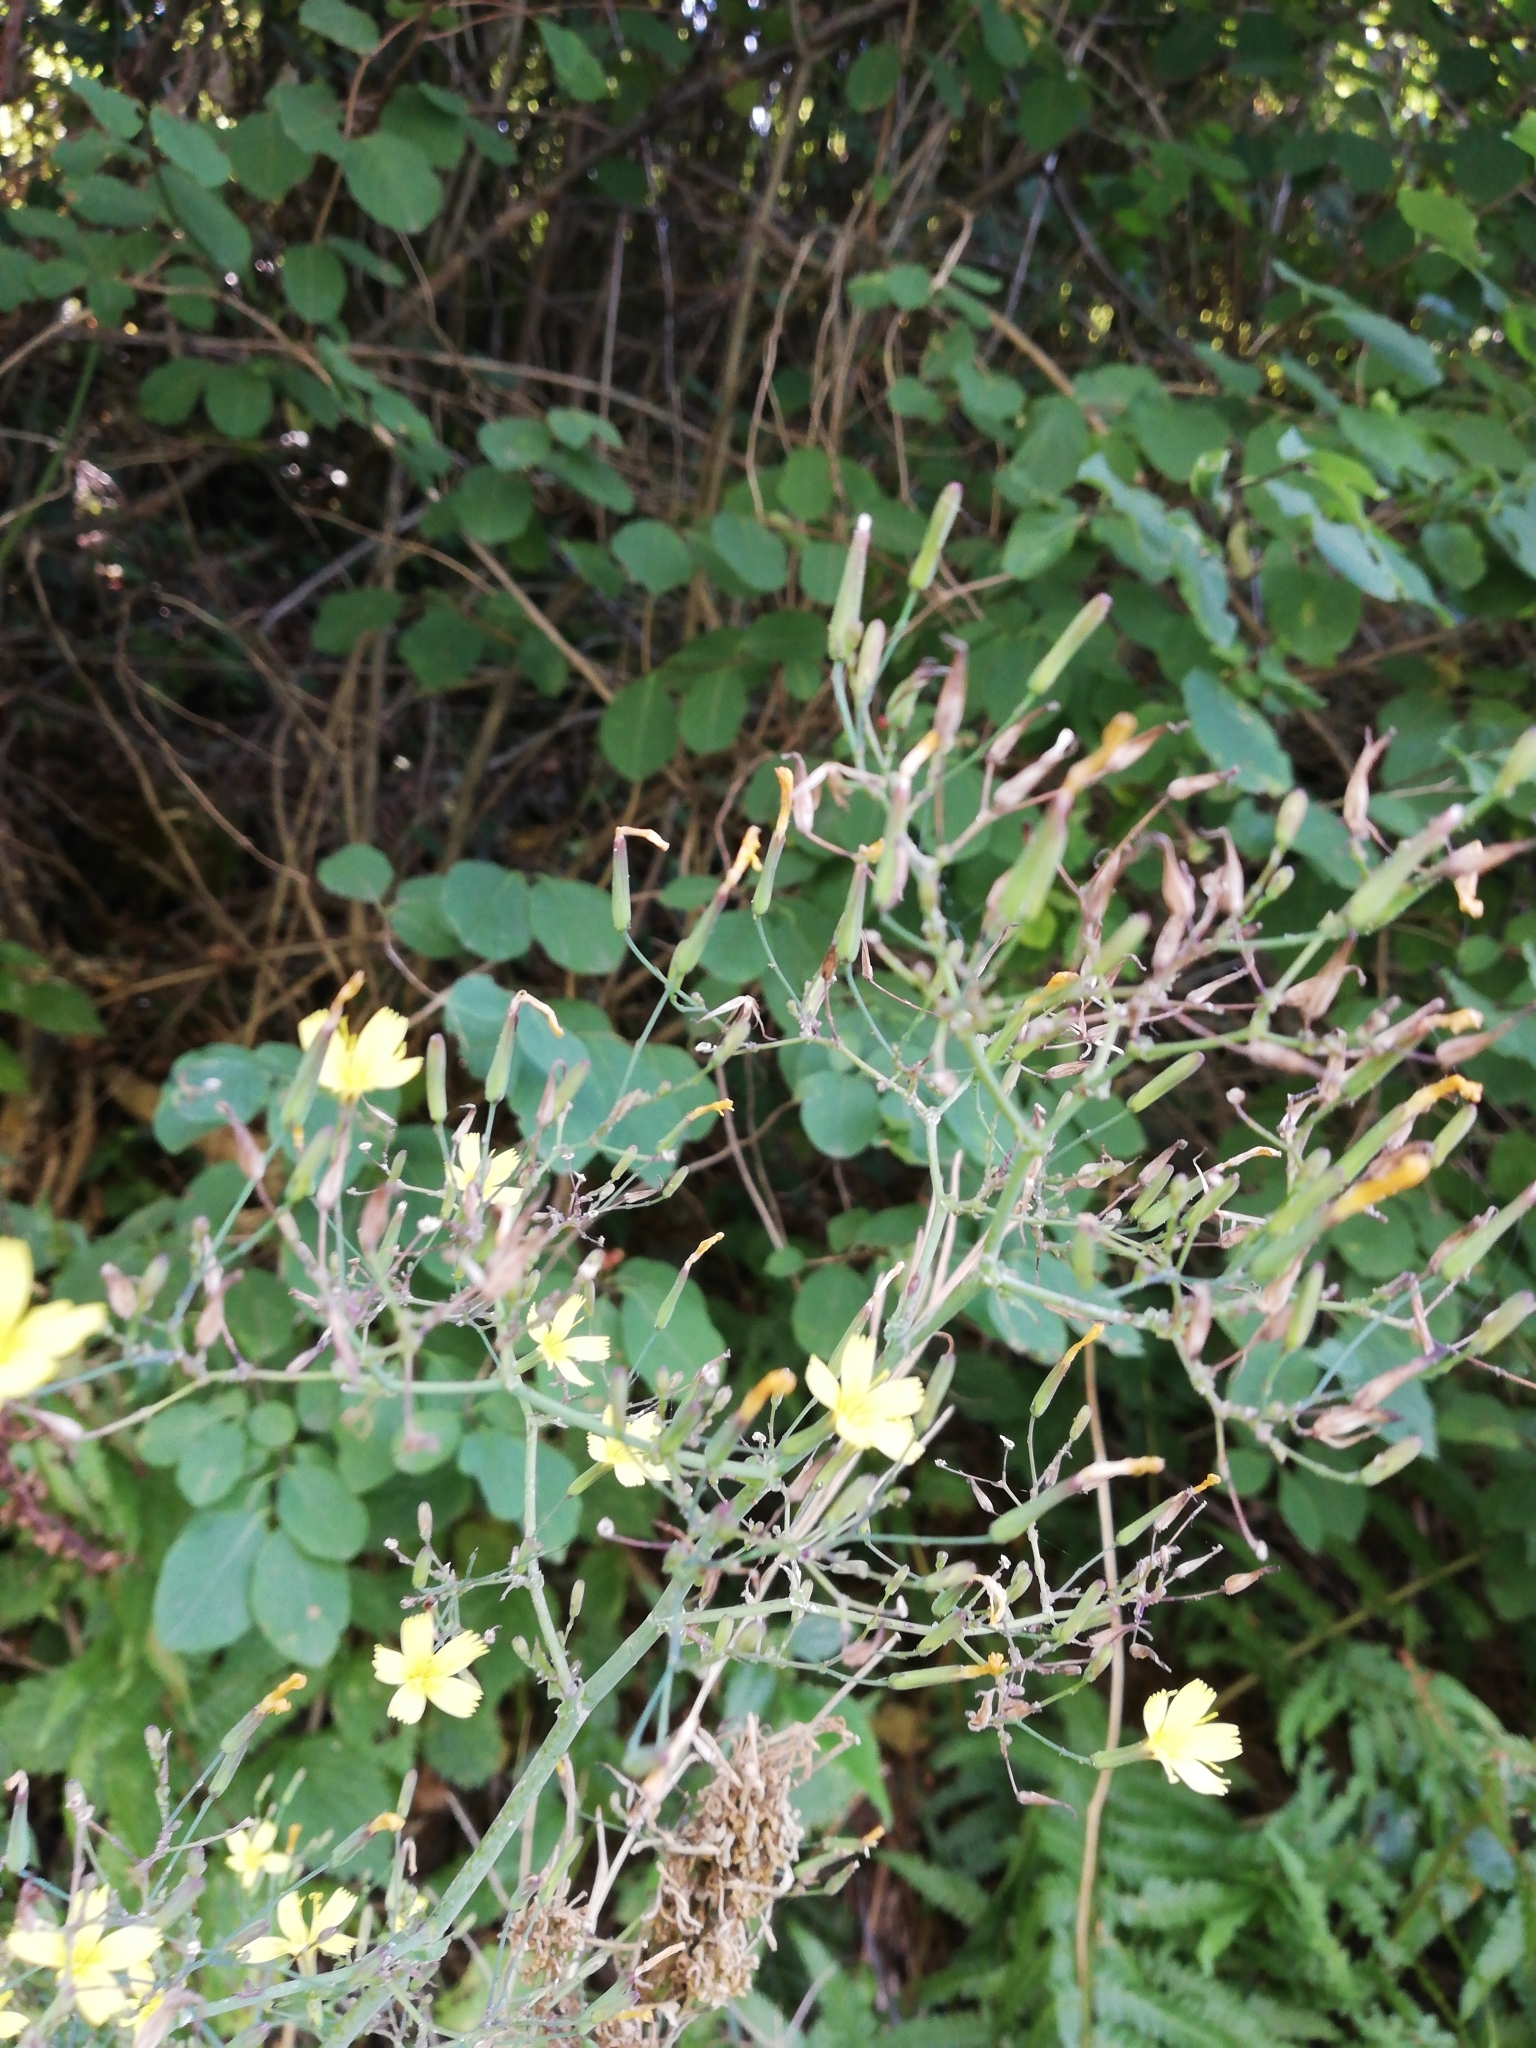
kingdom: Plantae
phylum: Tracheophyta
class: Magnoliopsida
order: Asterales
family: Asteraceae
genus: Mycelis
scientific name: Mycelis muralis
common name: Wall lettuce
